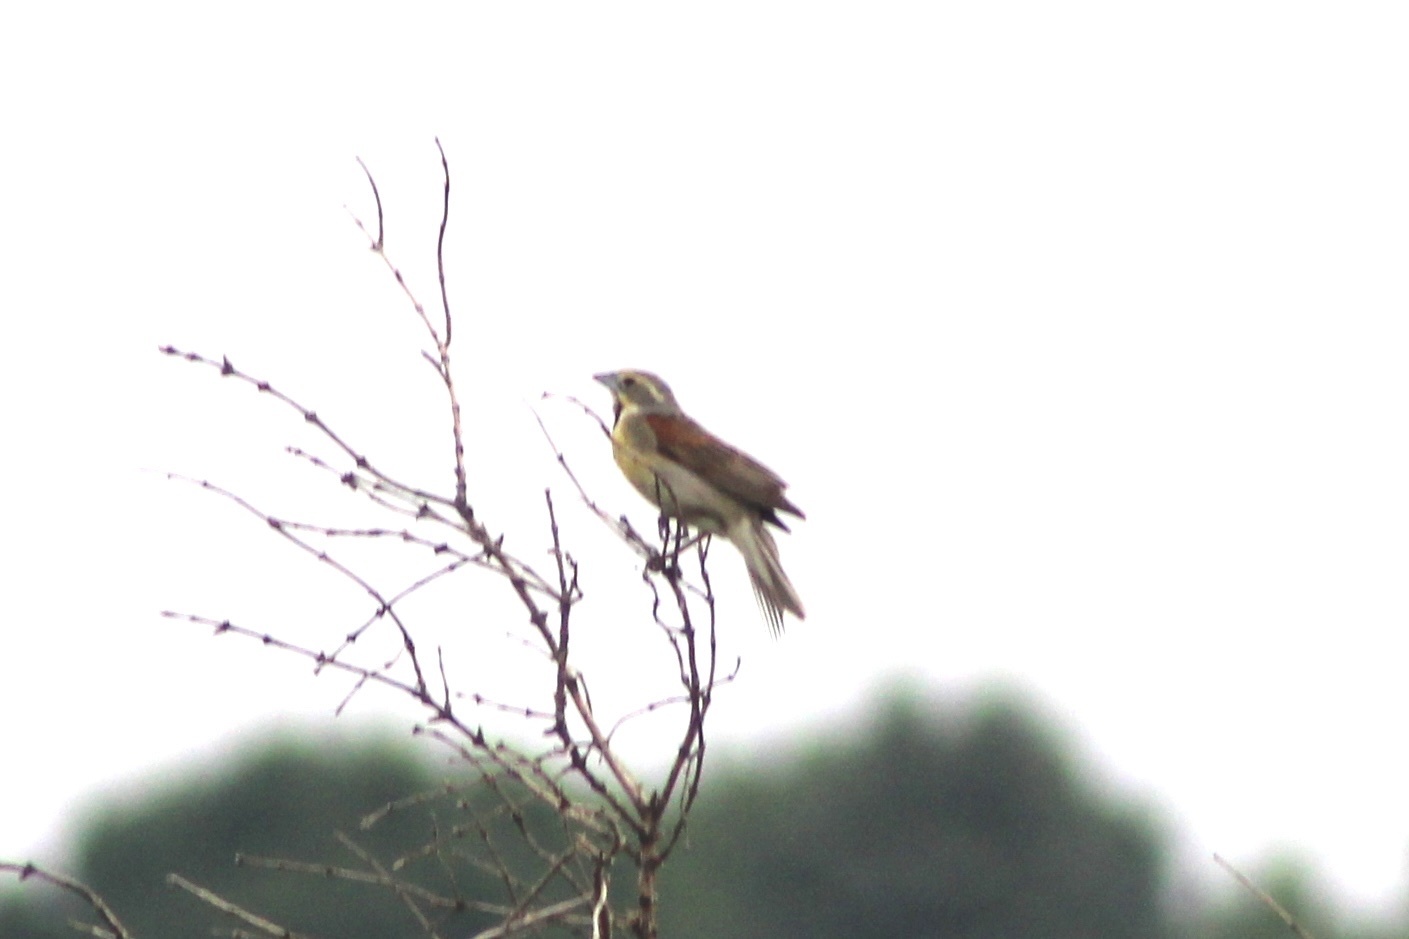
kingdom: Animalia
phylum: Chordata
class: Aves
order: Passeriformes
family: Cardinalidae
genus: Spiza
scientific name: Spiza americana
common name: Dickcissel
